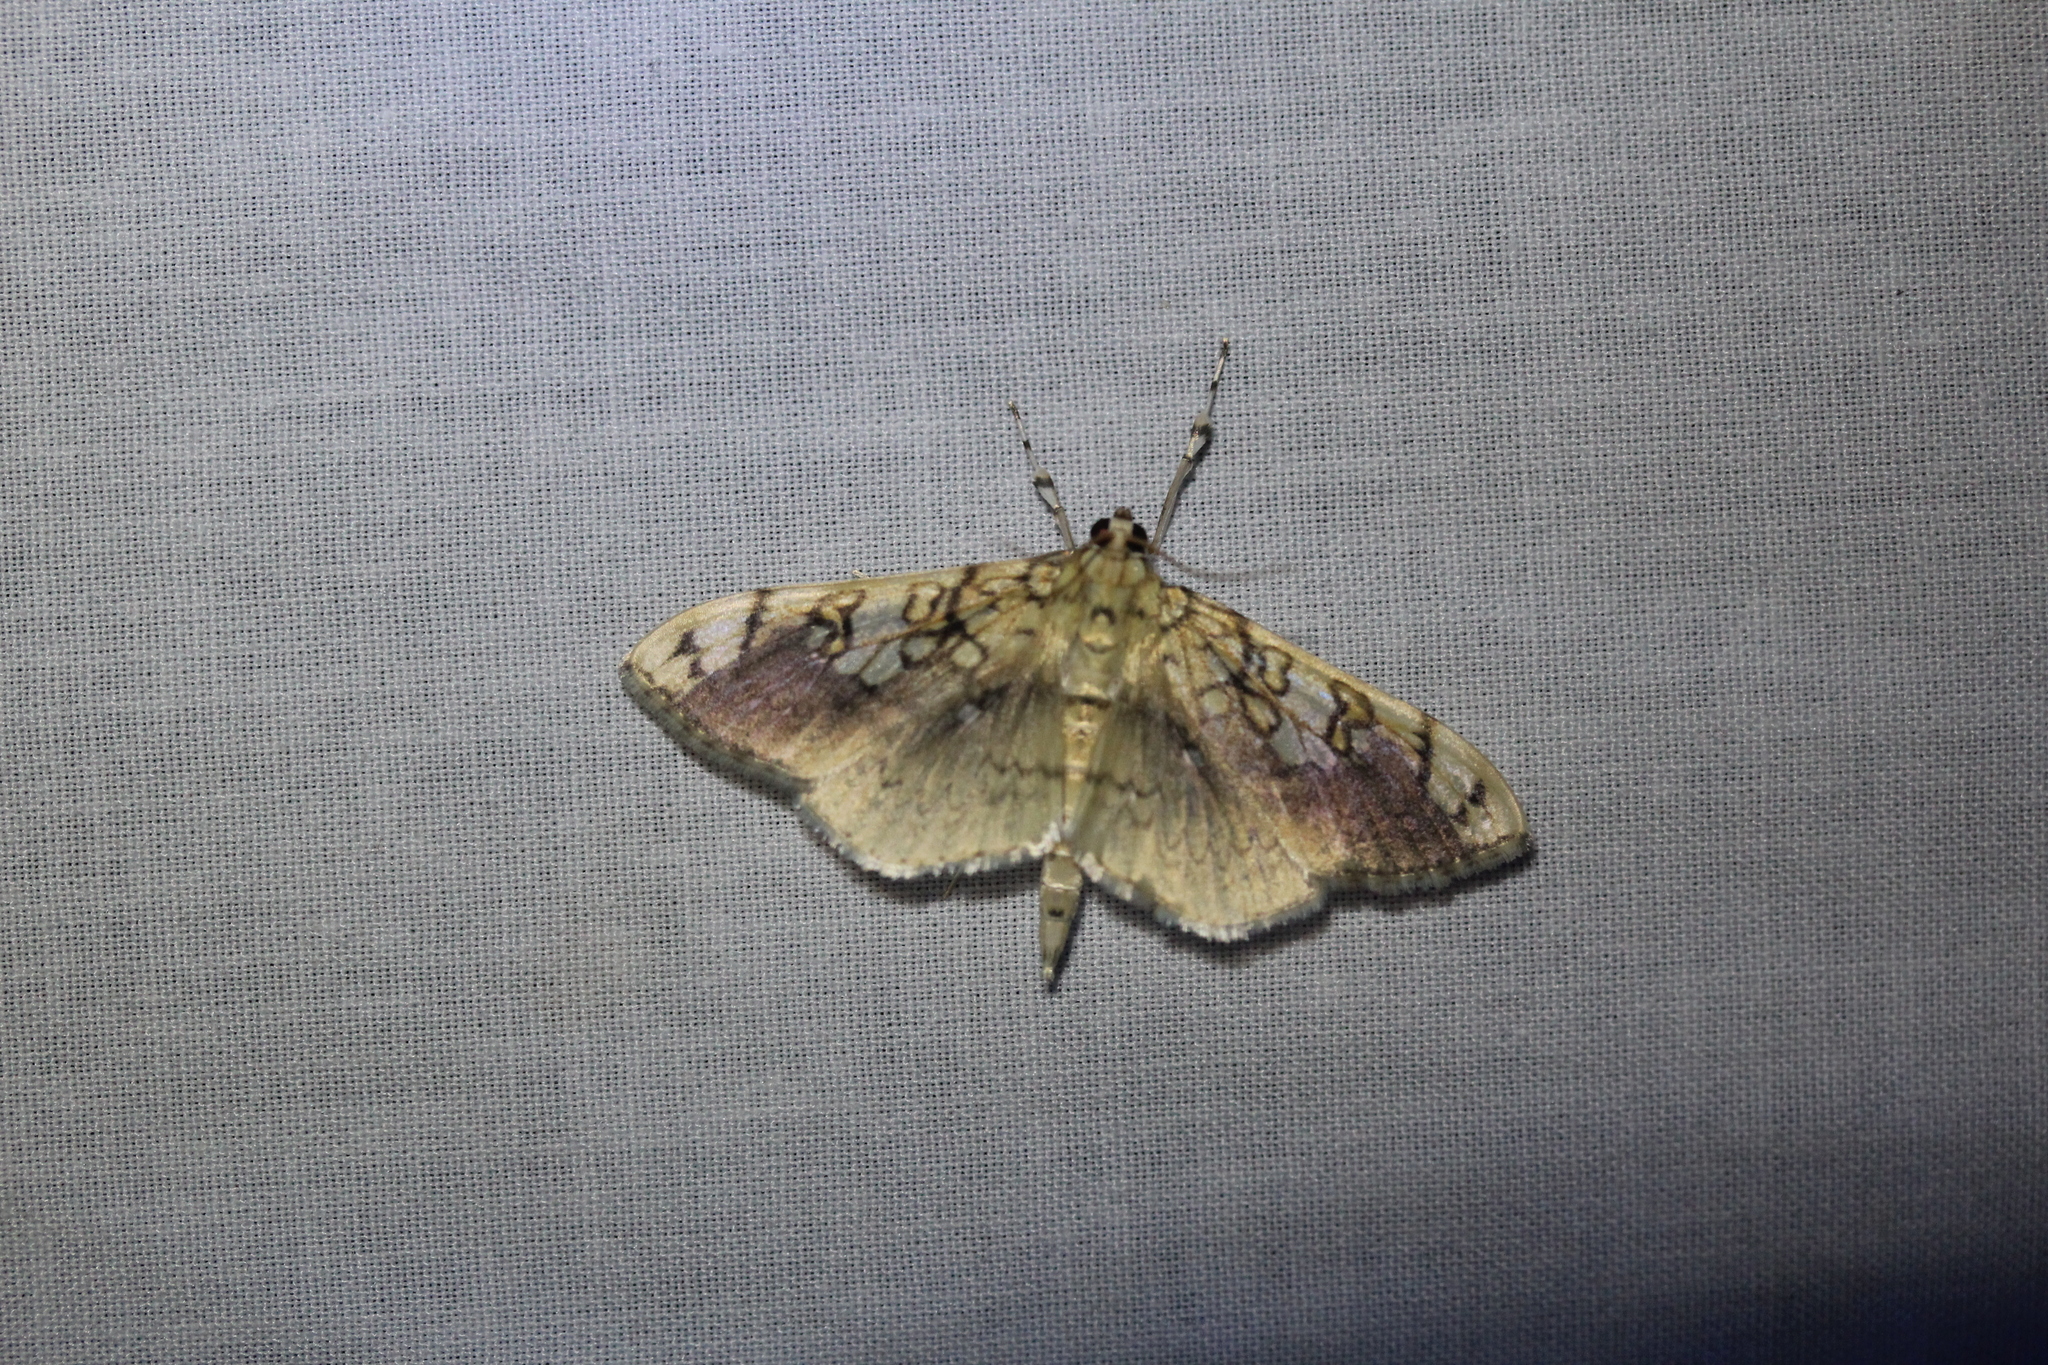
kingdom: Animalia
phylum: Arthropoda
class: Insecta
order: Lepidoptera
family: Crambidae
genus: Pantographa
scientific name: Pantographa limata
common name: Basswood leafroller moth
